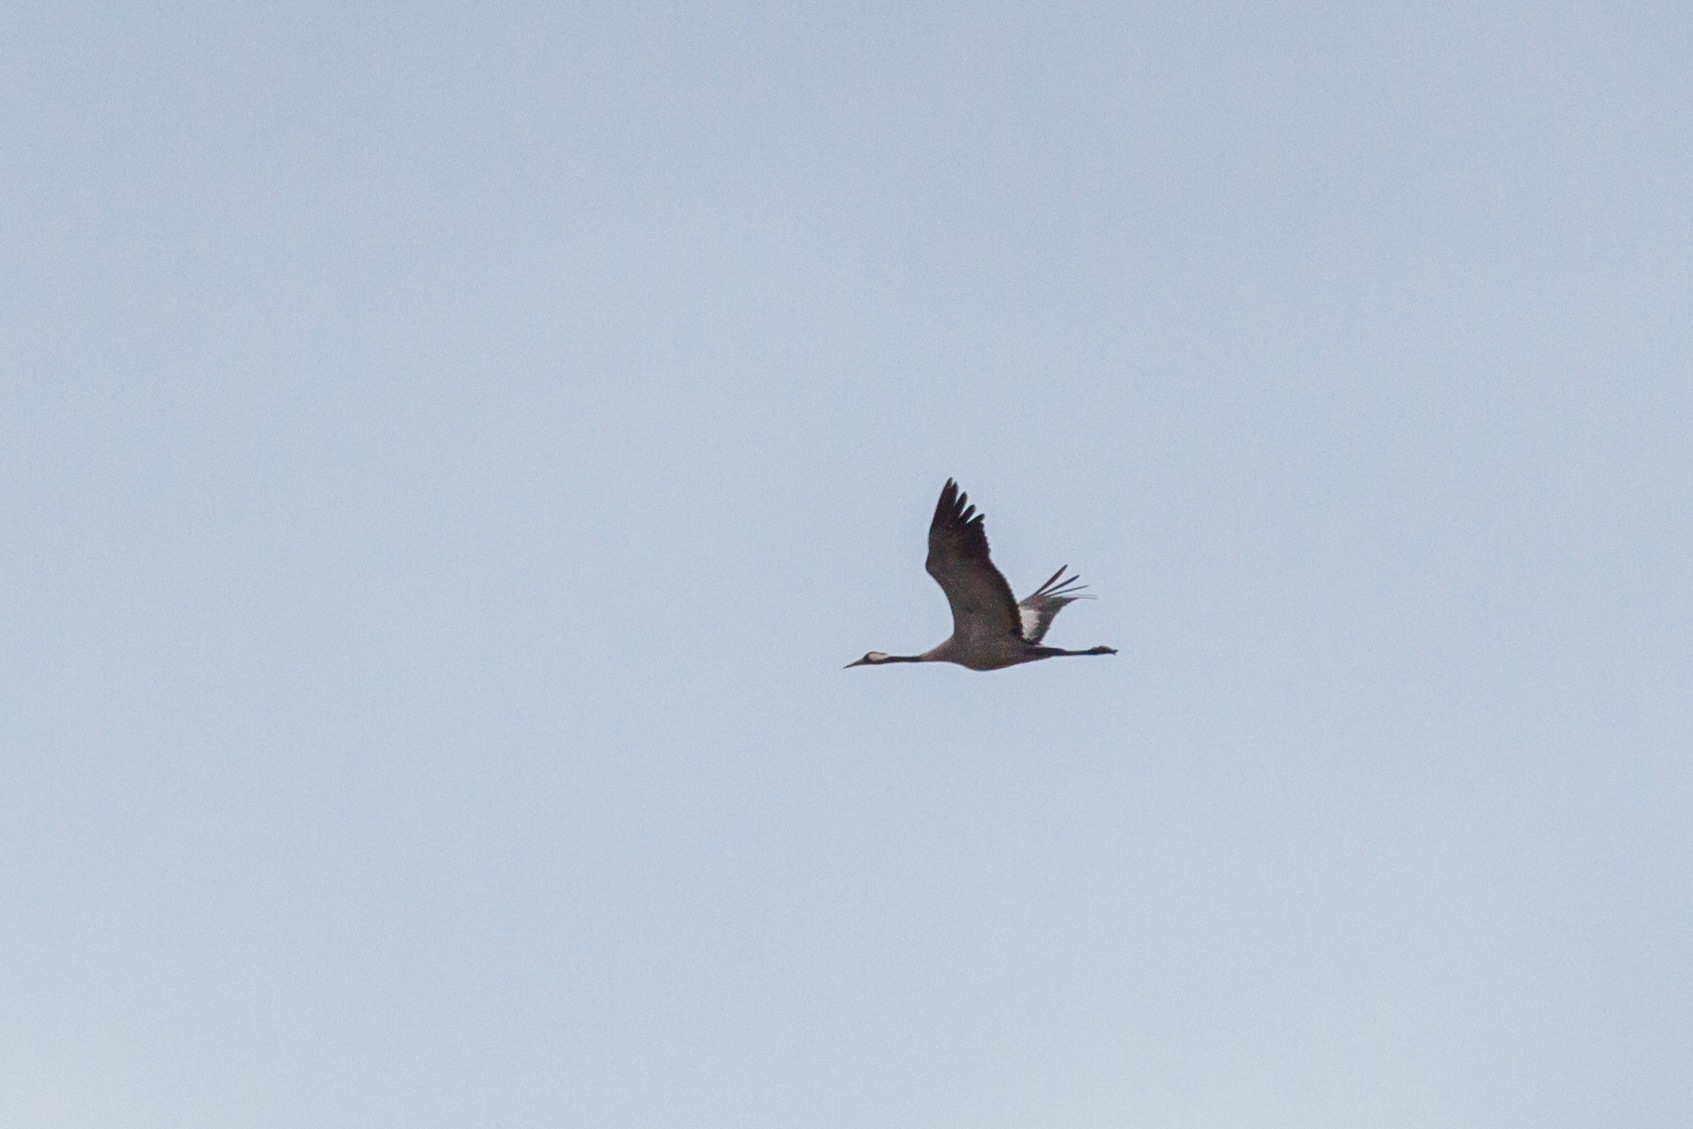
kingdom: Animalia
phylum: Chordata
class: Aves
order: Gruiformes
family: Gruidae
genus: Grus
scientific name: Grus grus
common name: Common crane
